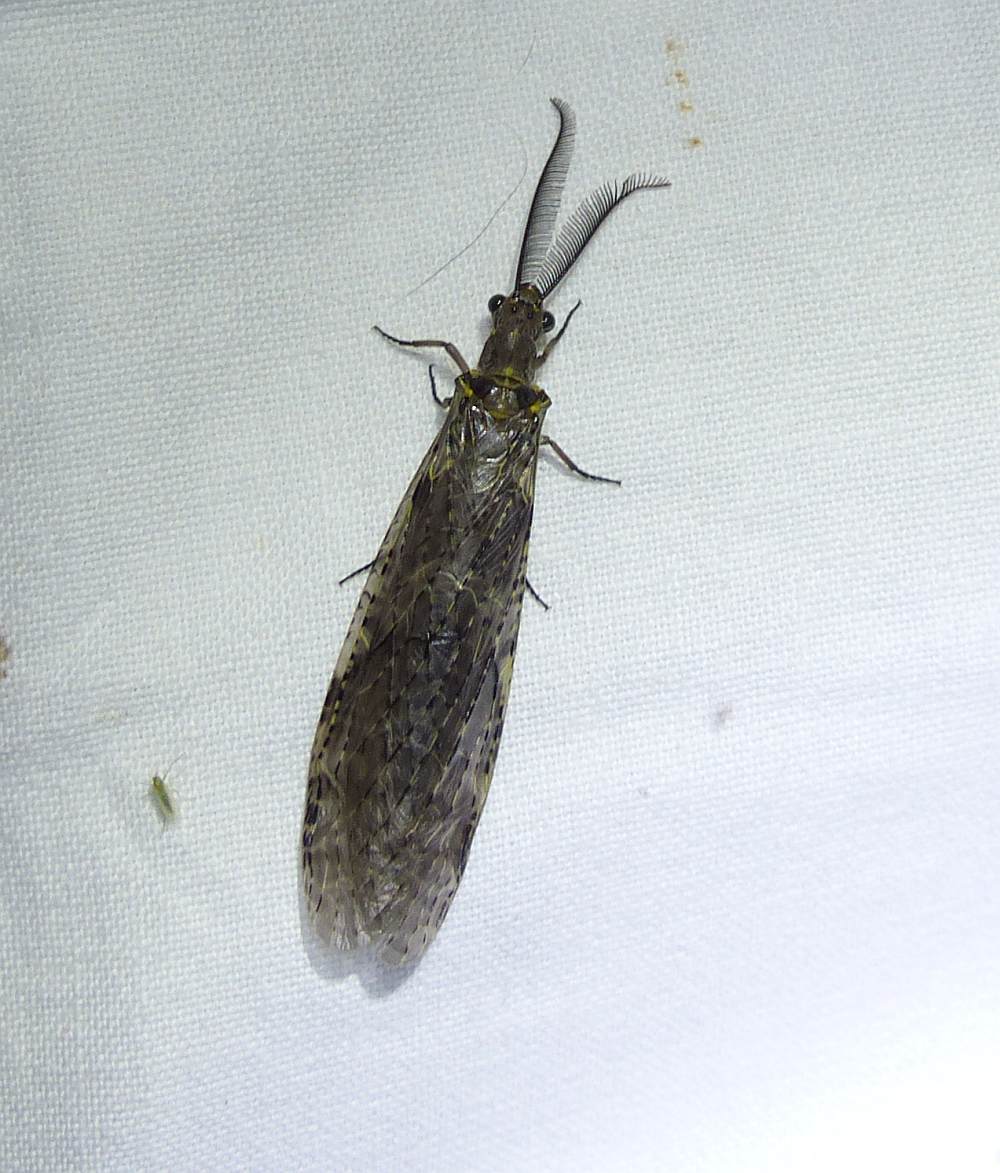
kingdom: Animalia
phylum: Arthropoda
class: Insecta
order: Megaloptera
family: Corydalidae
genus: Chauliodes
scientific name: Chauliodes rastricornis
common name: Spring fishfly
